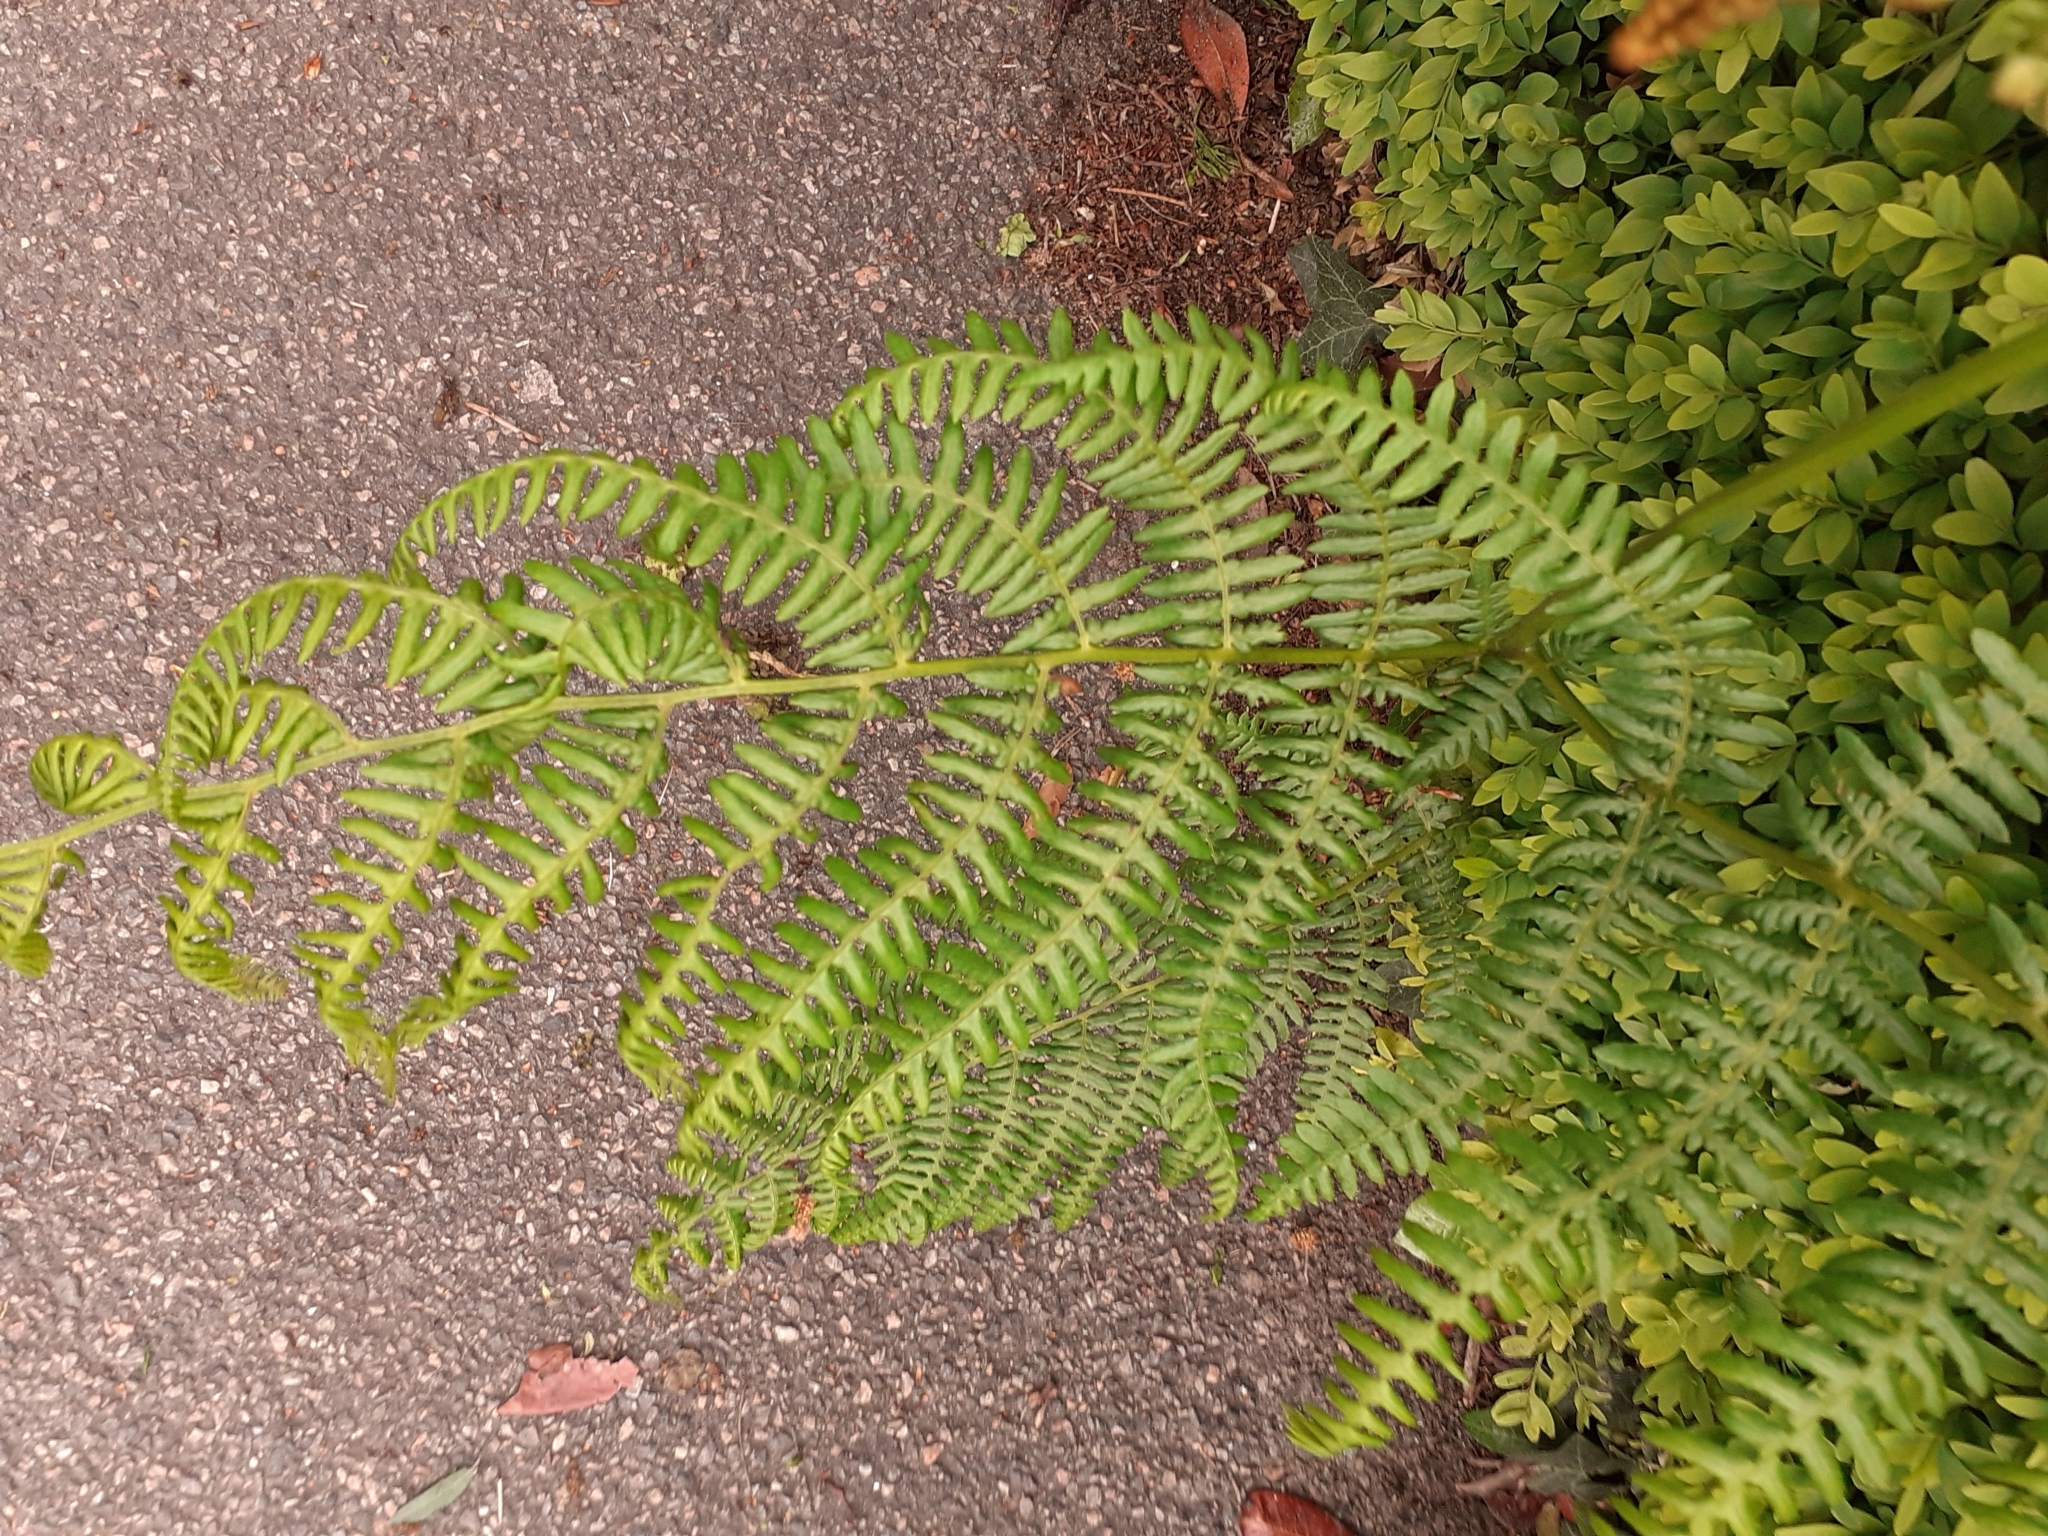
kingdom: Plantae
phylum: Tracheophyta
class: Polypodiopsida
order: Polypodiales
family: Dennstaedtiaceae
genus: Pteridium
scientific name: Pteridium aquilinum
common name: Bracken
